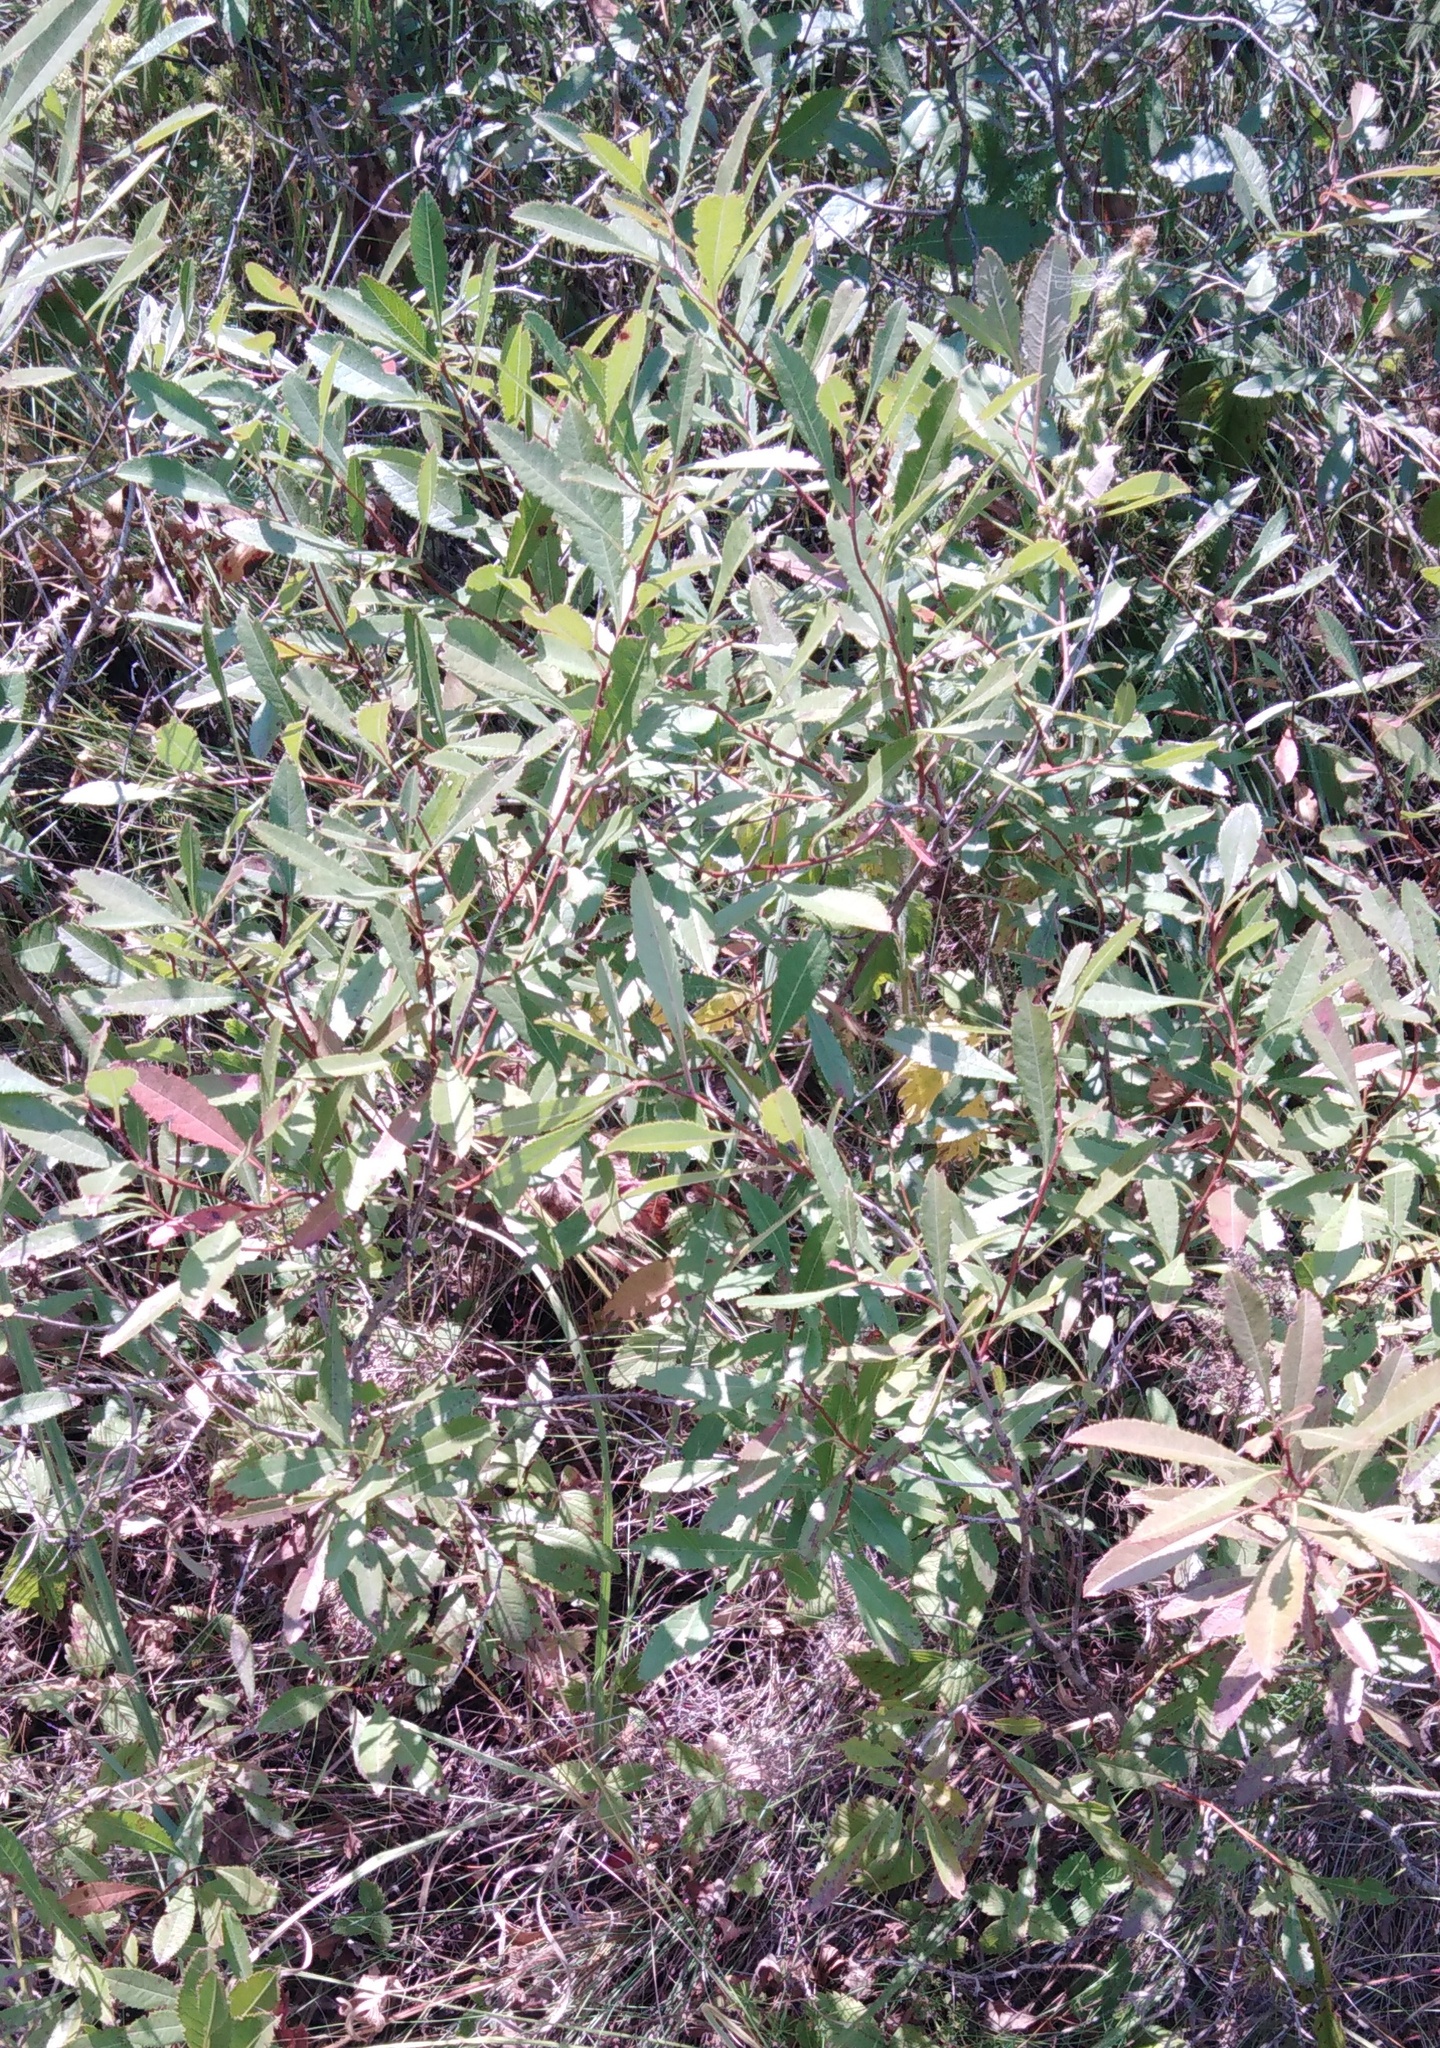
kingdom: Plantae
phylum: Tracheophyta
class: Magnoliopsida
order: Rosales
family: Rosaceae
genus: Prunus
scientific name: Prunus tenella
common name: Dwarf russian almond
